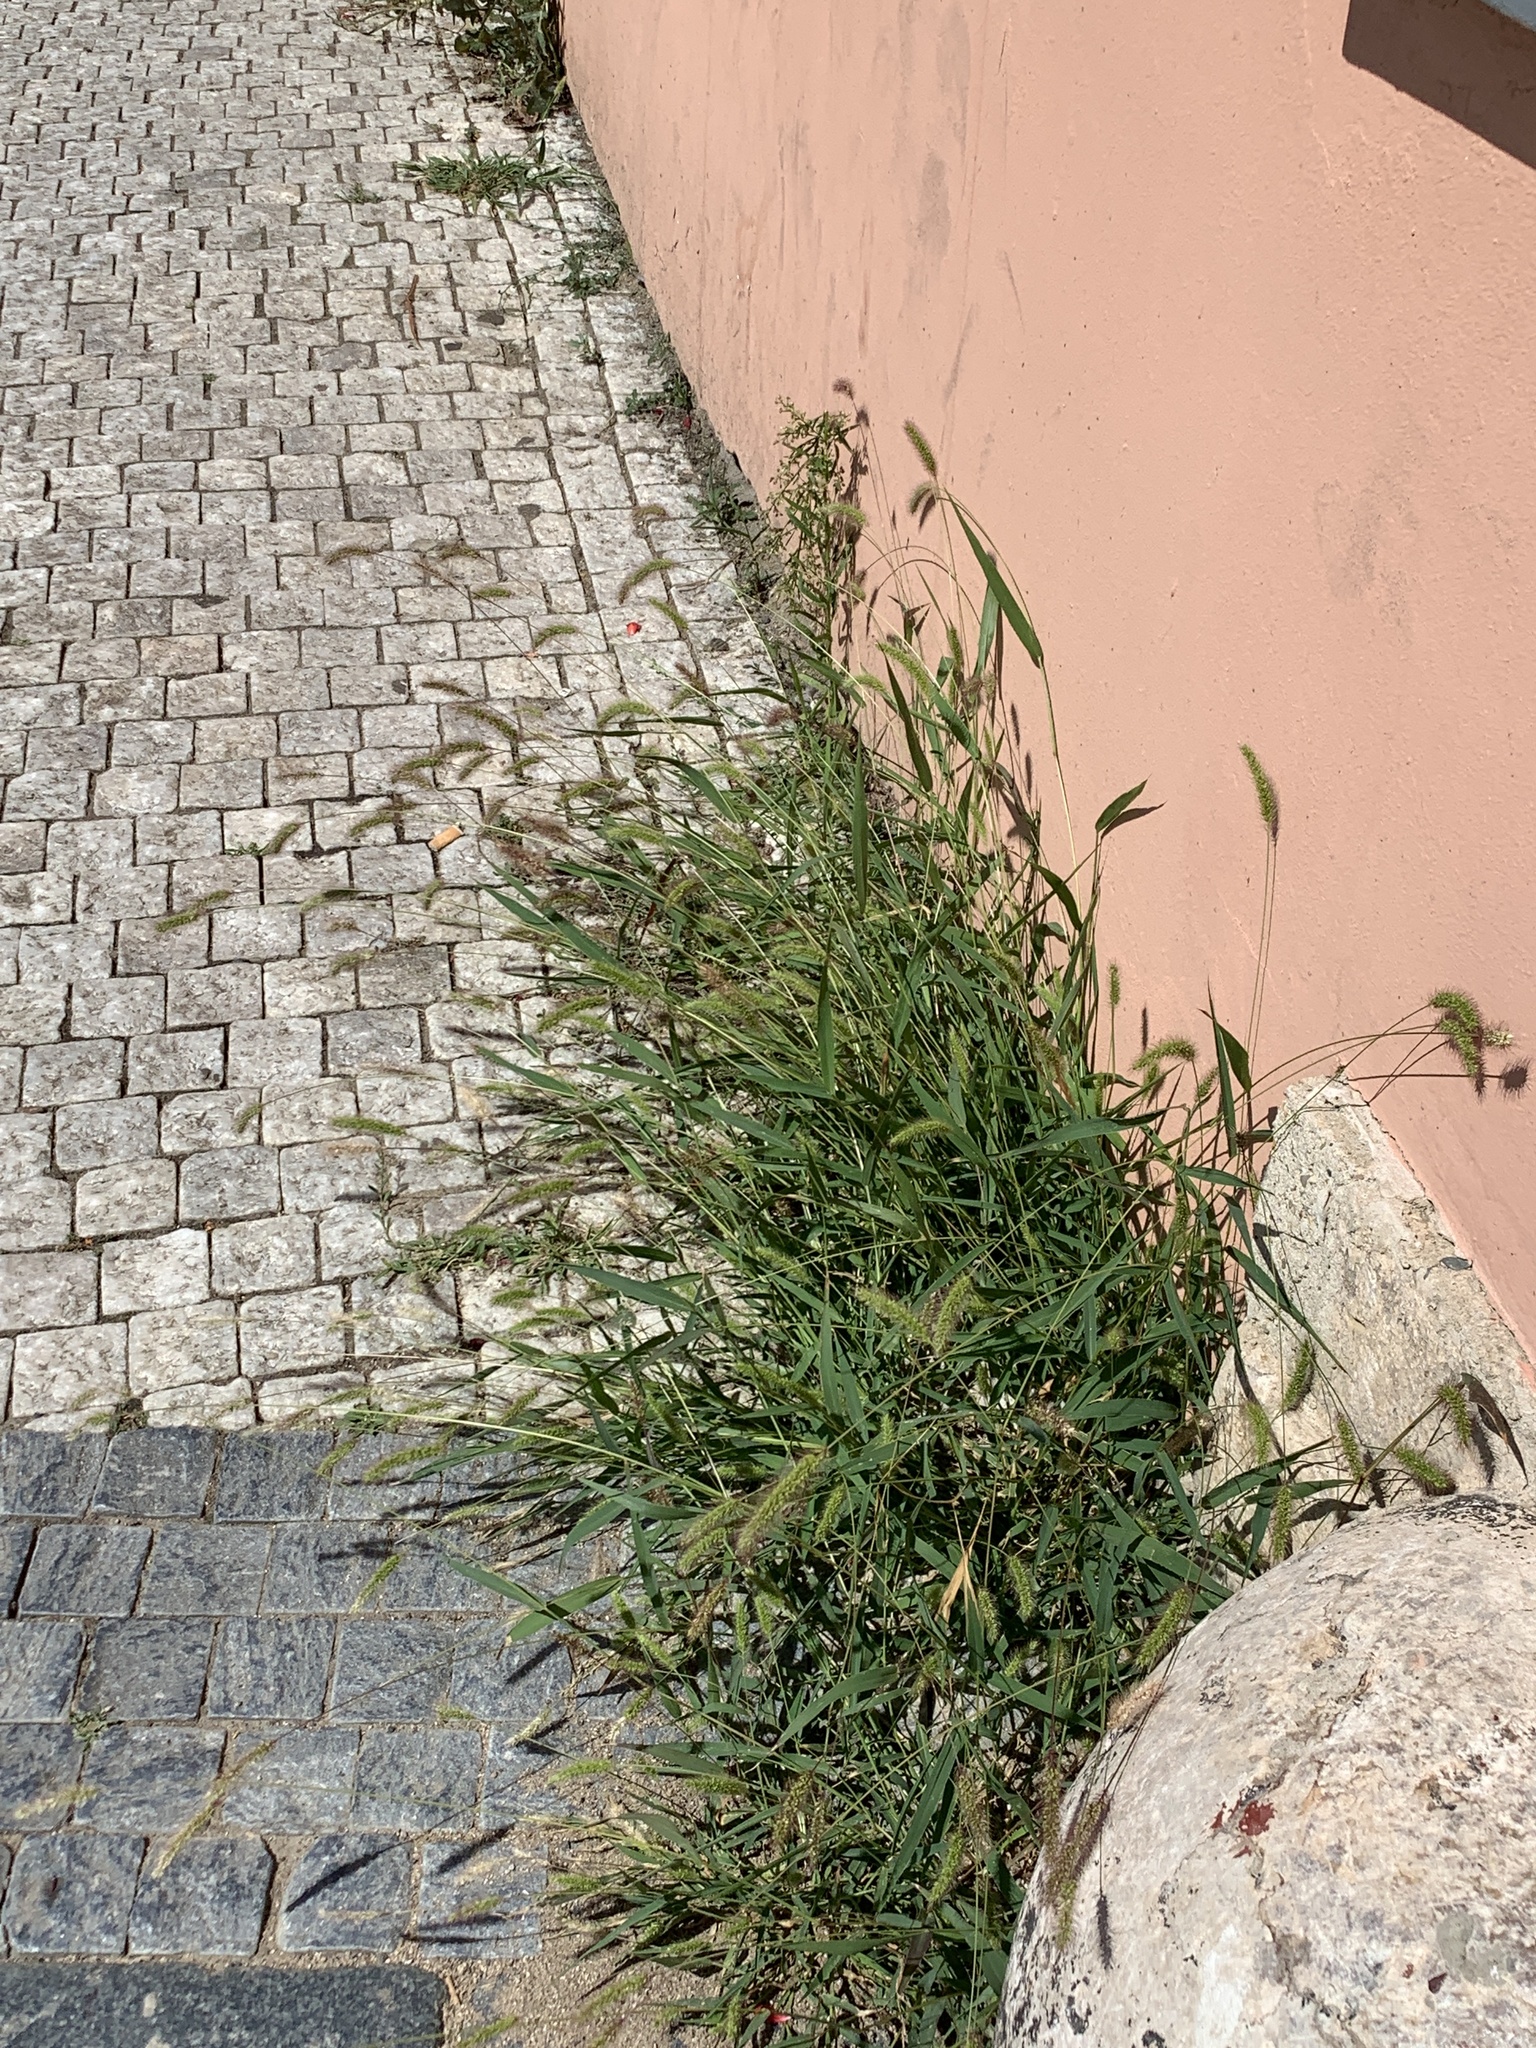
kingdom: Plantae
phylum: Tracheophyta
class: Liliopsida
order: Poales
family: Poaceae
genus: Setaria
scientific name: Setaria viridis
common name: Green bristlegrass
